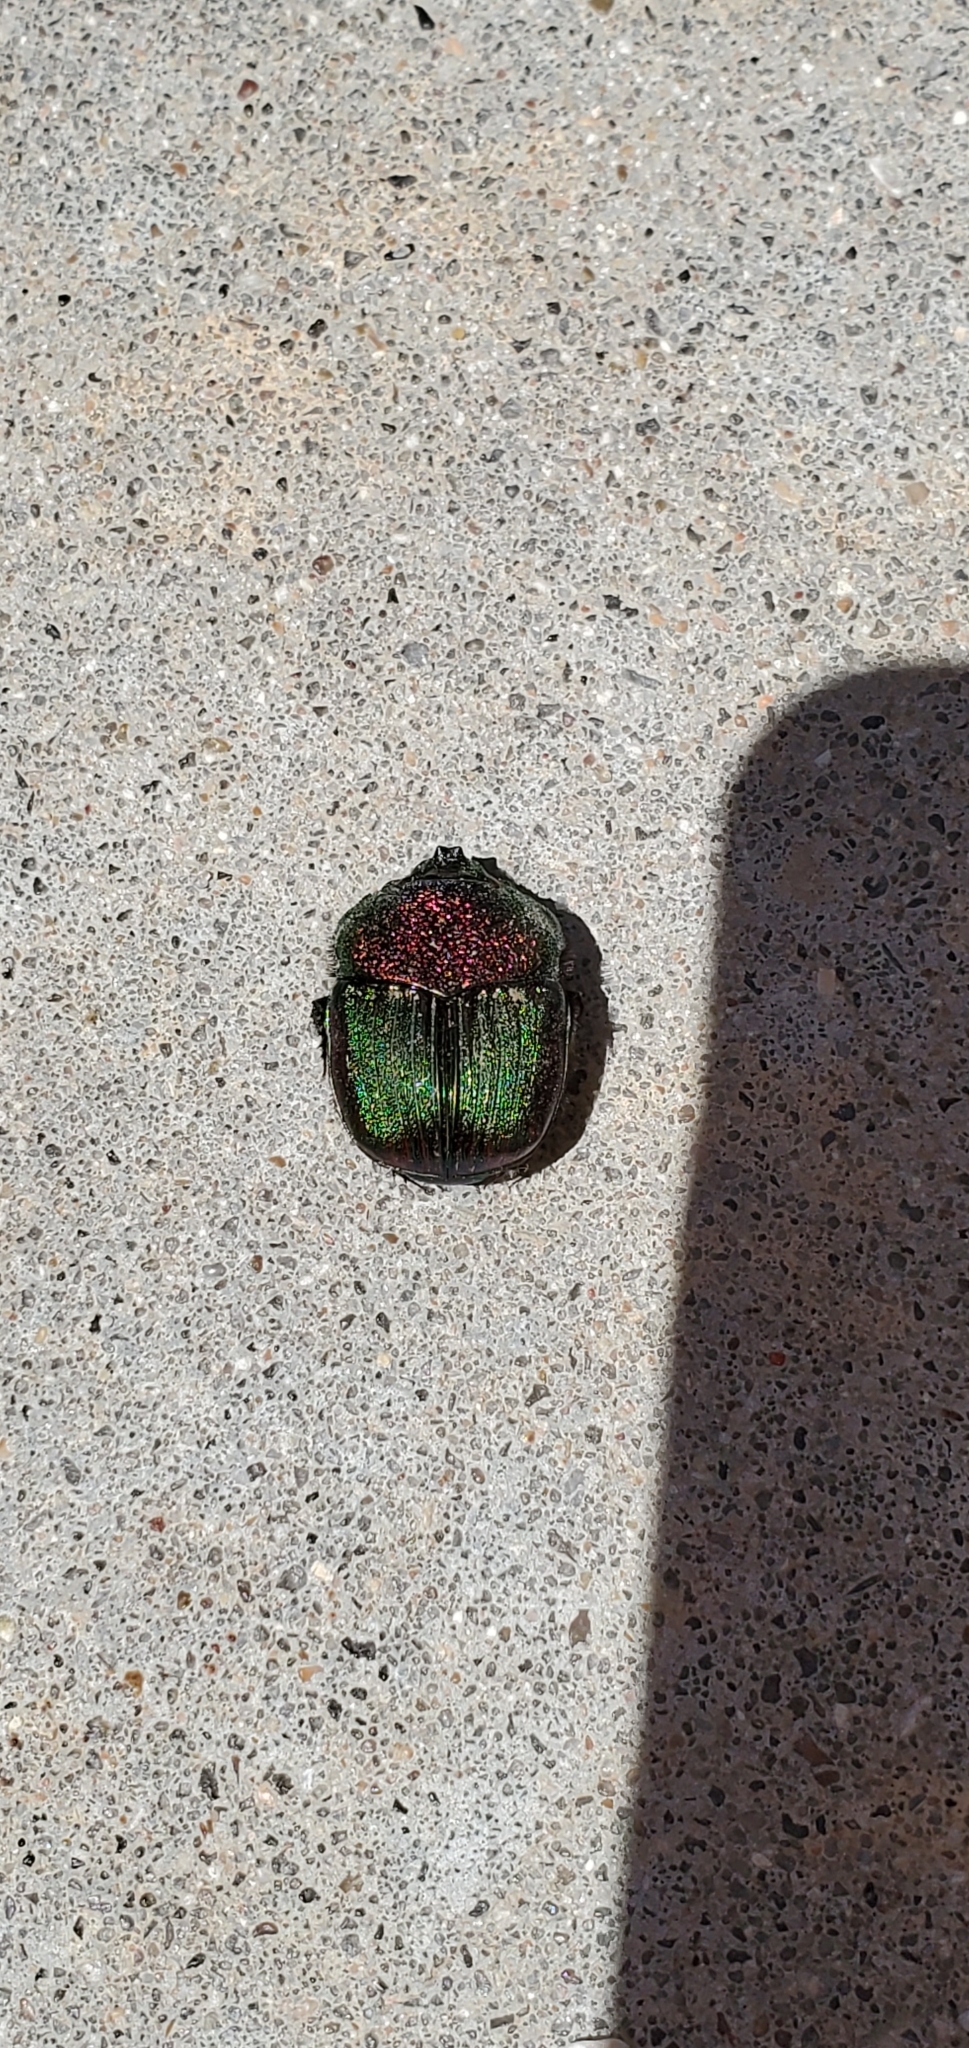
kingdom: Animalia
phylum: Arthropoda
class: Insecta
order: Coleoptera
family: Scarabaeidae
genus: Phanaeus
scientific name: Phanaeus vindex
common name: Rainbow scarab
